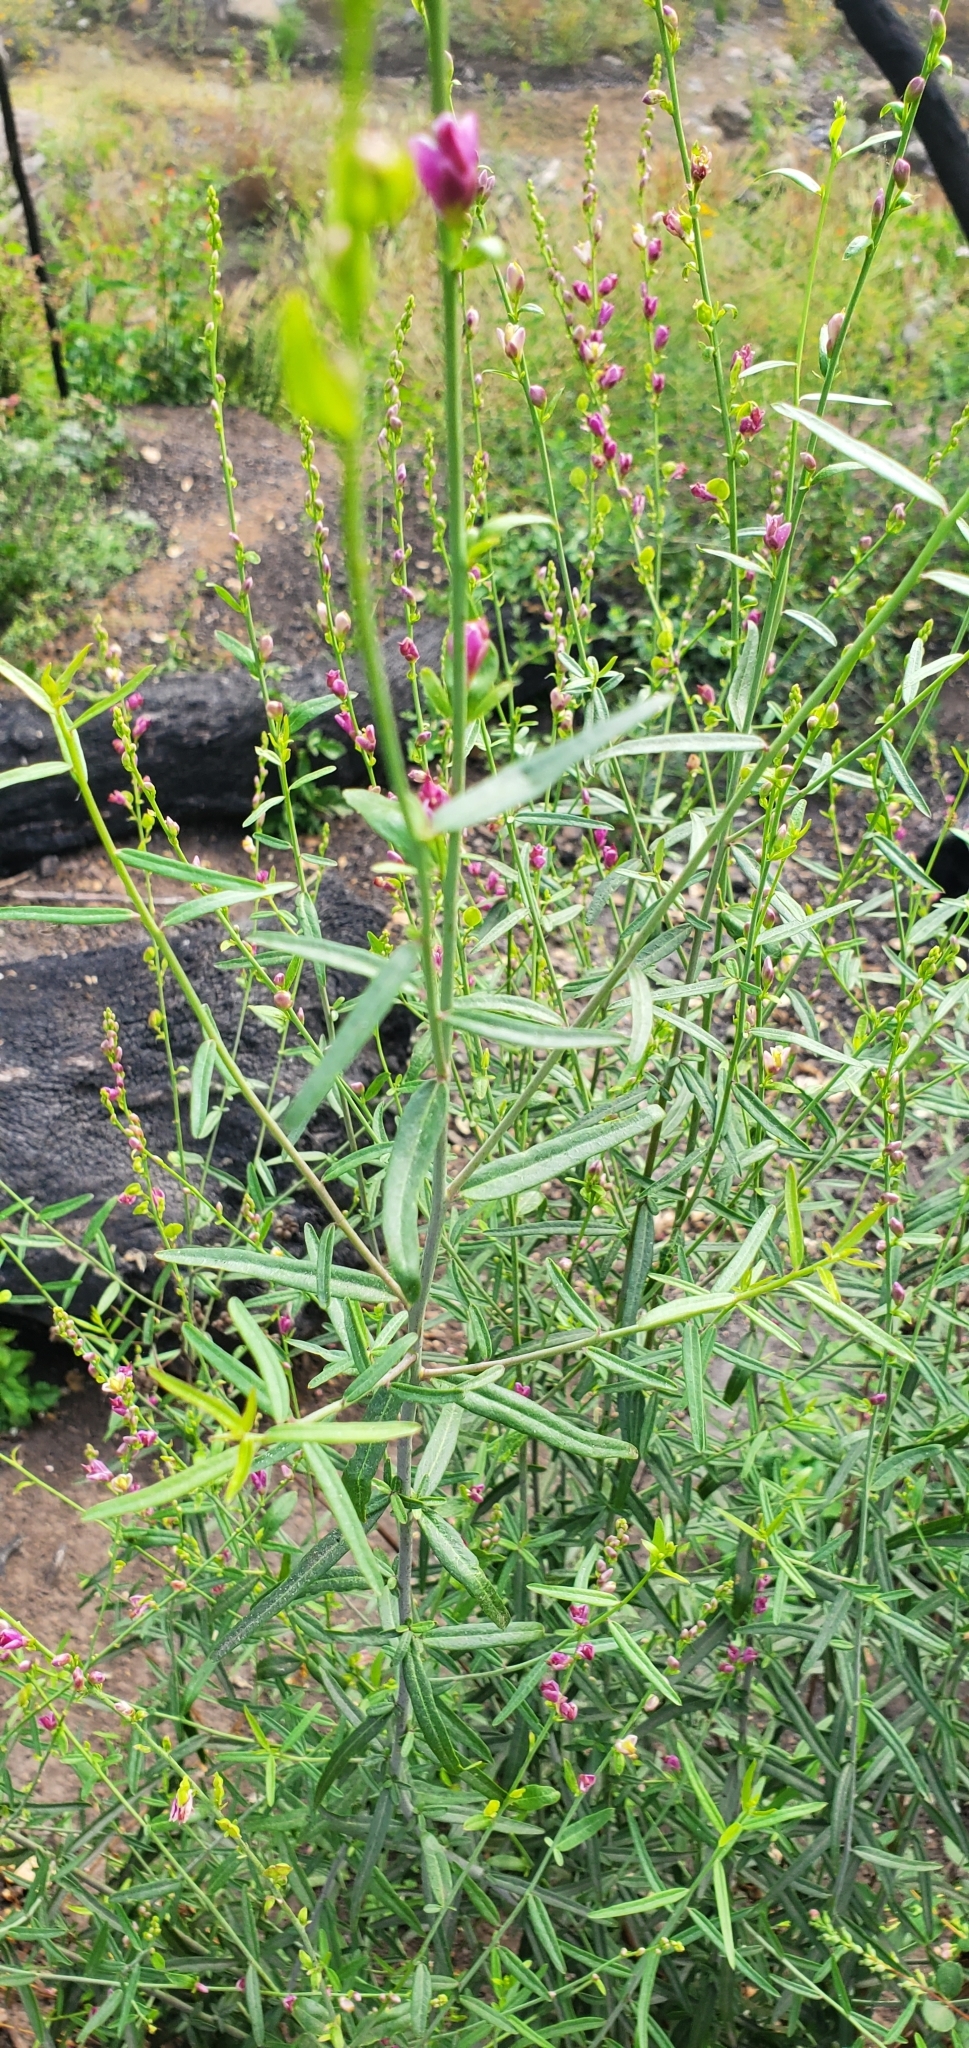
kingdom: Plantae
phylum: Tracheophyta
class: Magnoliopsida
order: Fabales
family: Polygalaceae
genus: Rhinotropis
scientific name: Rhinotropis cornuta
